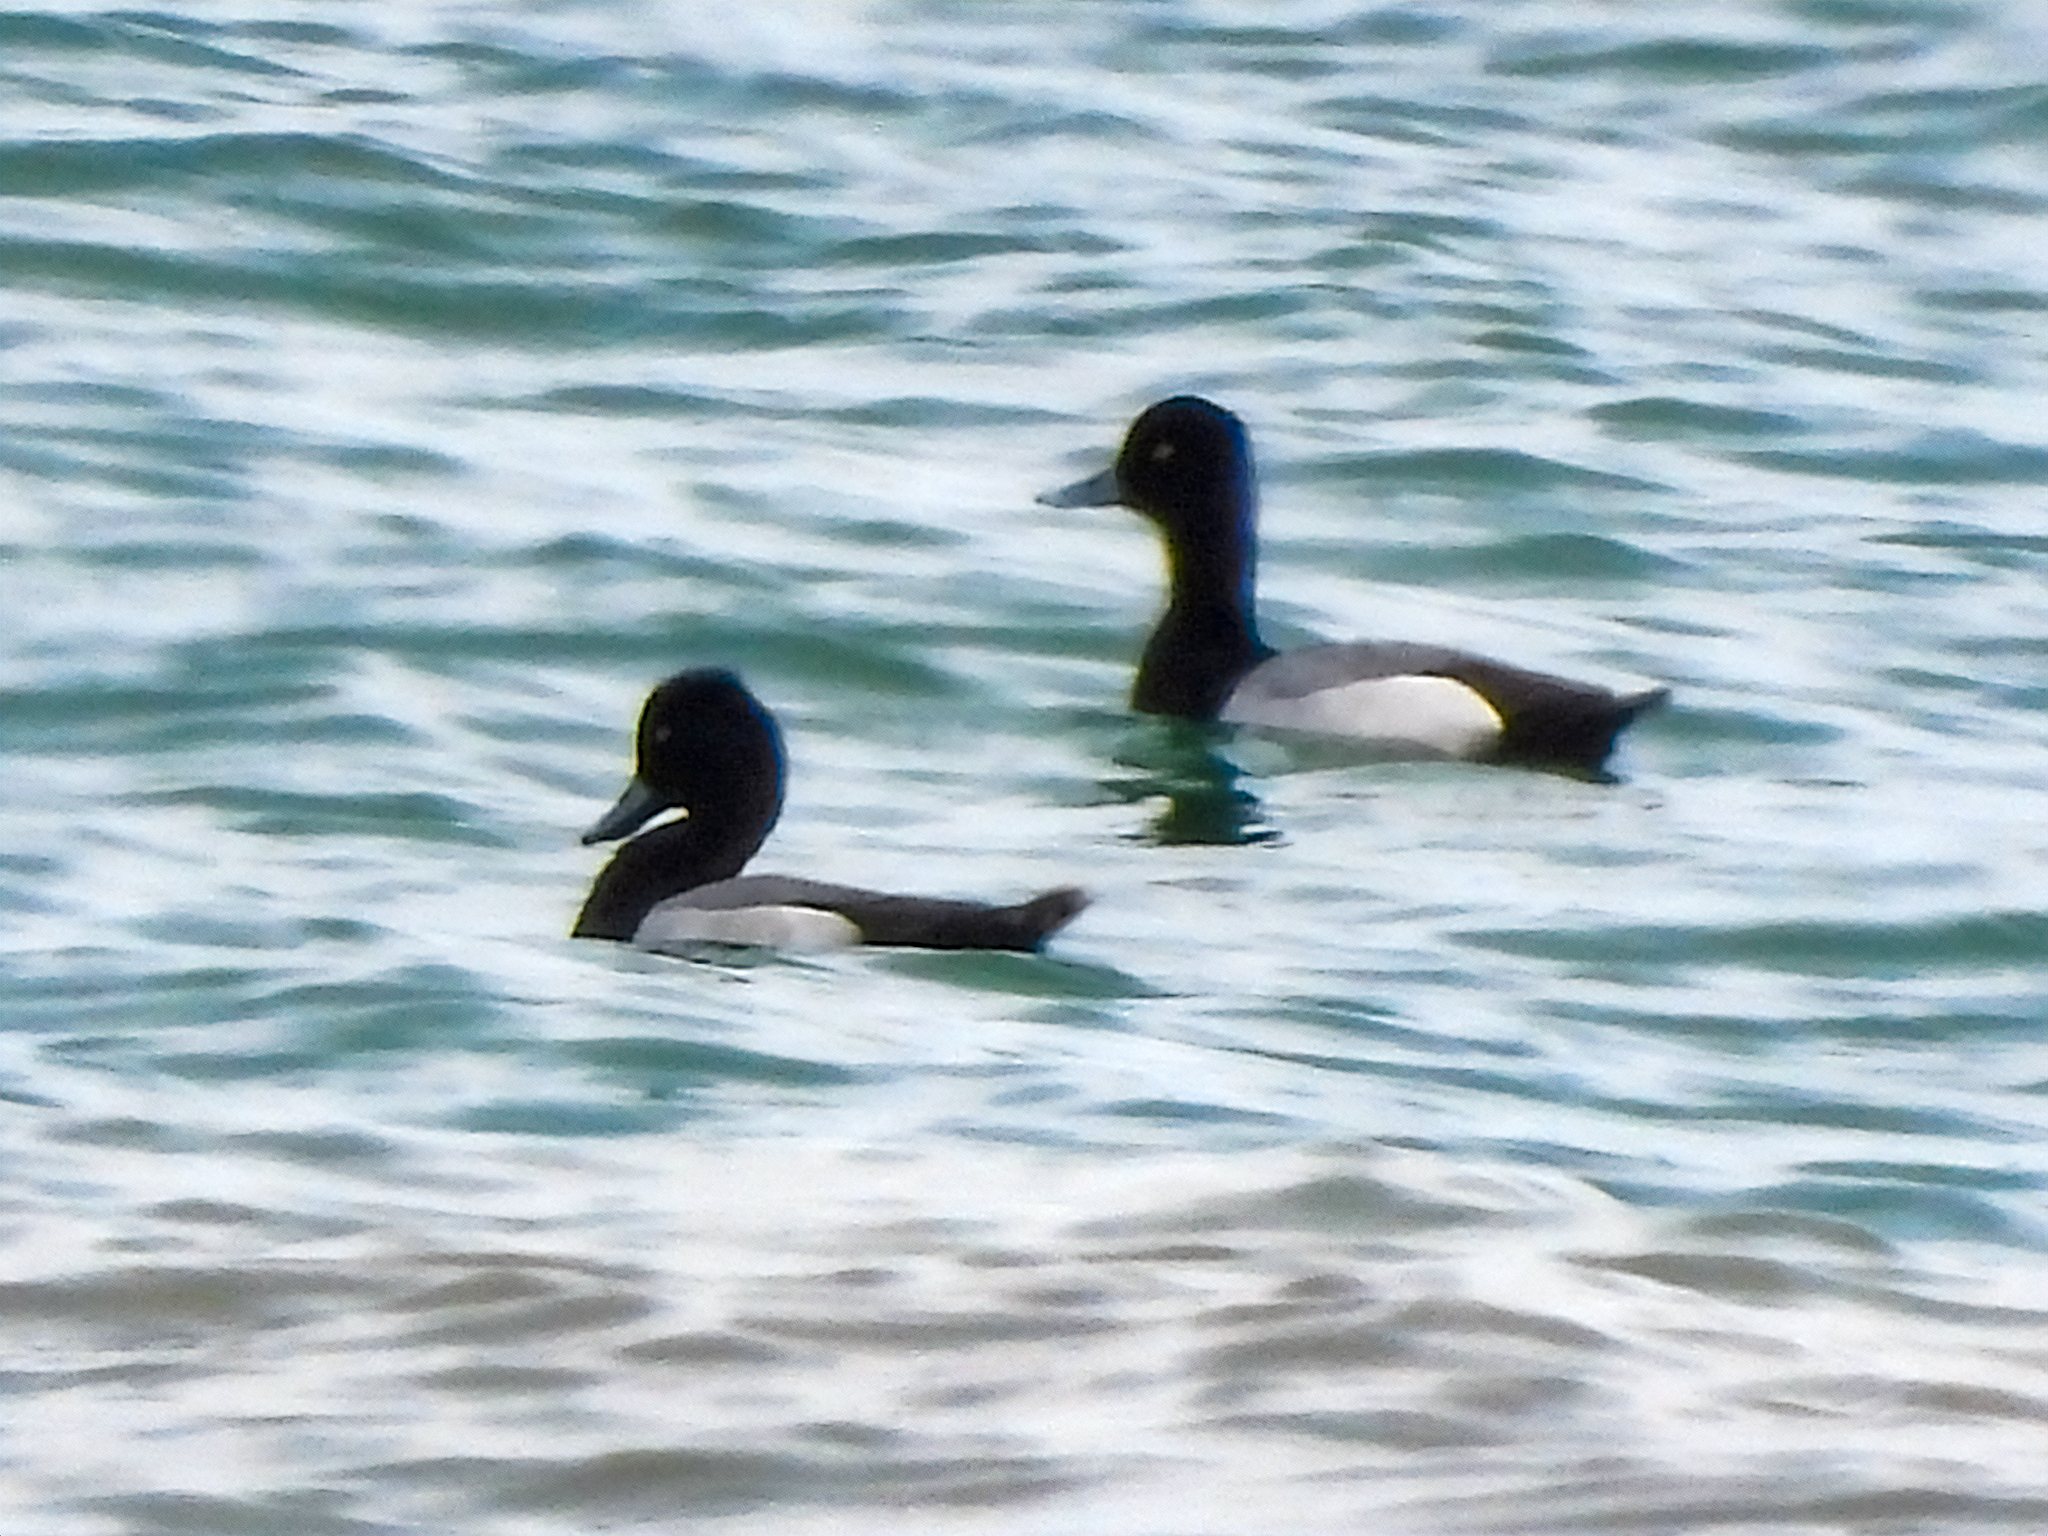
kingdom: Animalia
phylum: Chordata
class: Aves
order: Anseriformes
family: Anatidae
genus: Aythya
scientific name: Aythya affinis
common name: Lesser scaup
